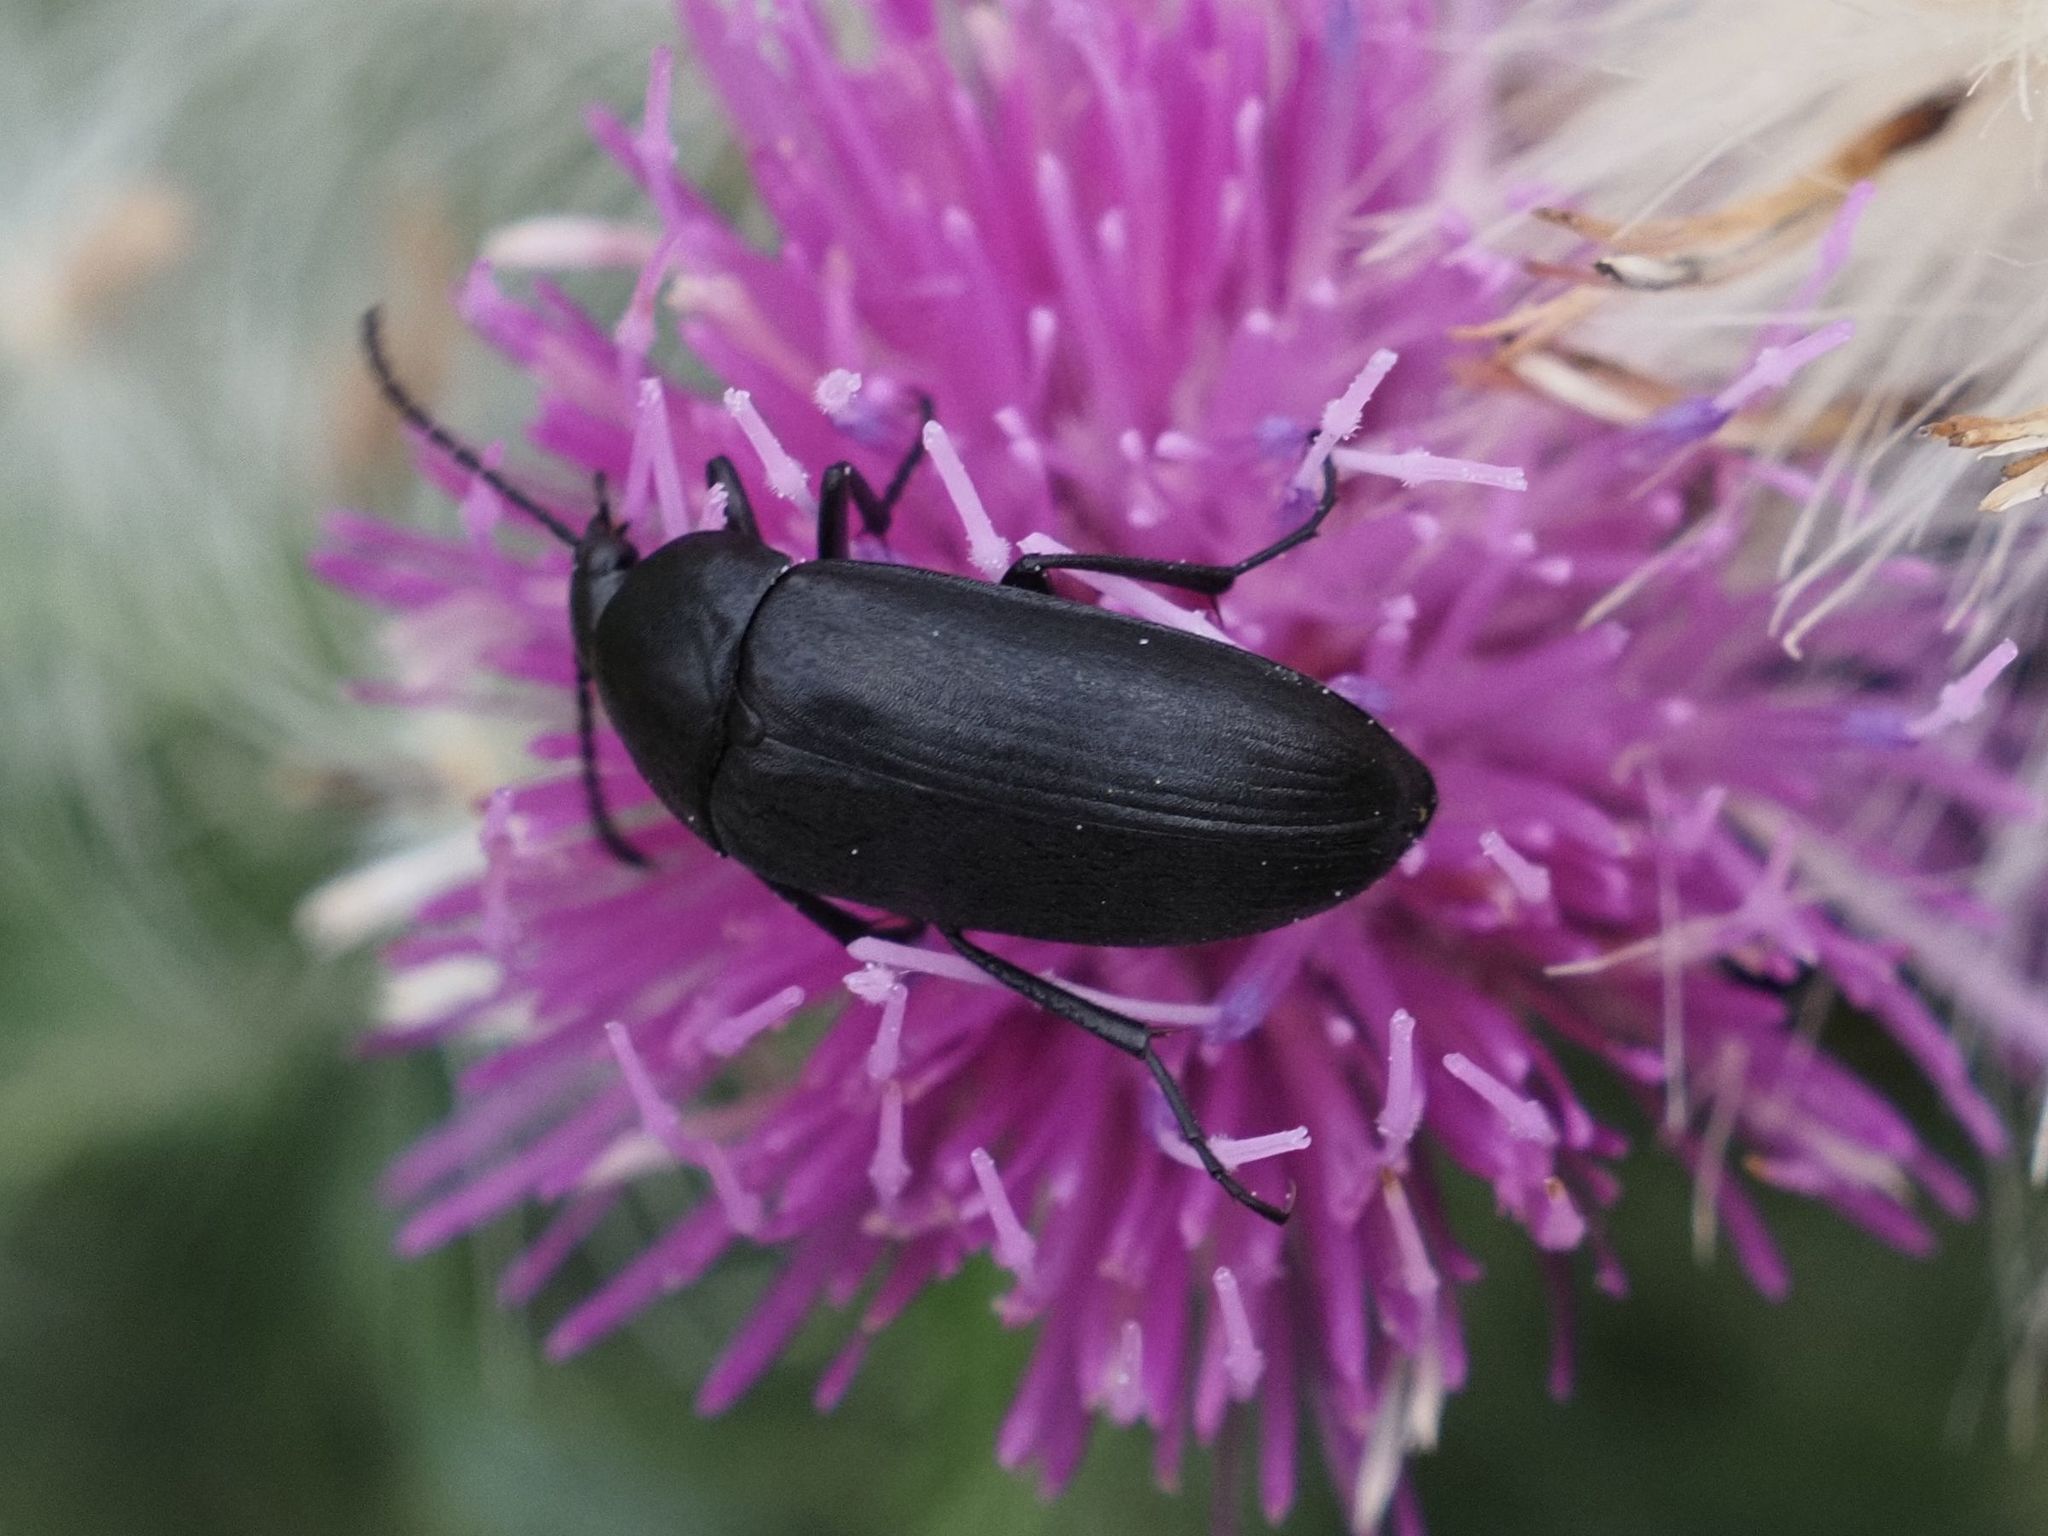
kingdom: Animalia
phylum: Arthropoda
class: Insecta
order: Coleoptera
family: Tenebrionidae
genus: Podonta
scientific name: Podonta nigrita
